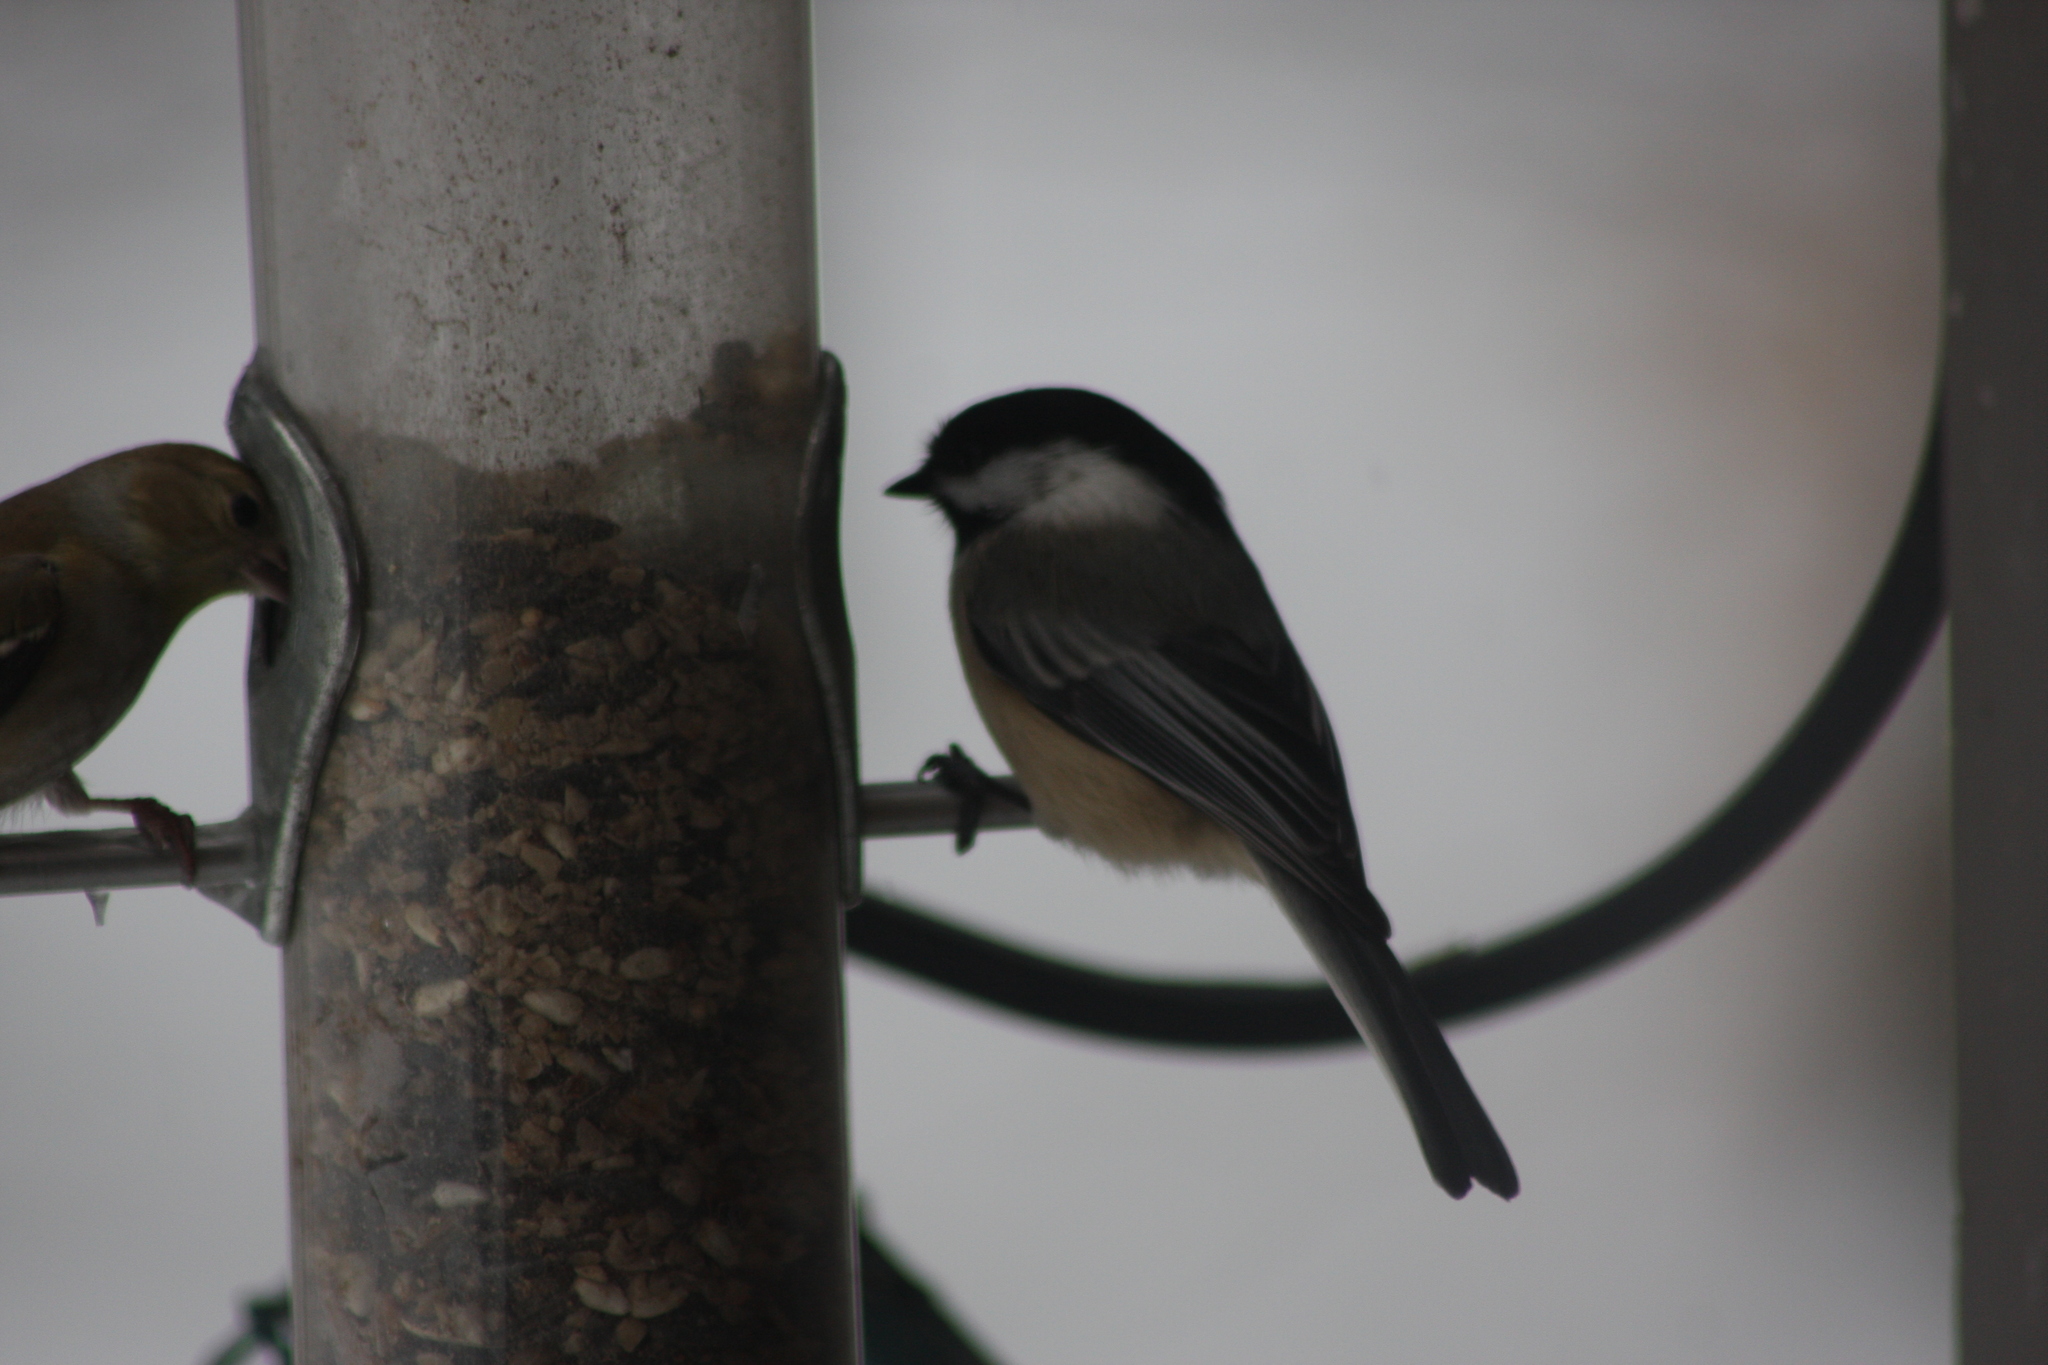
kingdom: Animalia
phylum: Chordata
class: Aves
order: Passeriformes
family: Paridae
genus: Poecile
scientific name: Poecile atricapillus
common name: Black-capped chickadee
